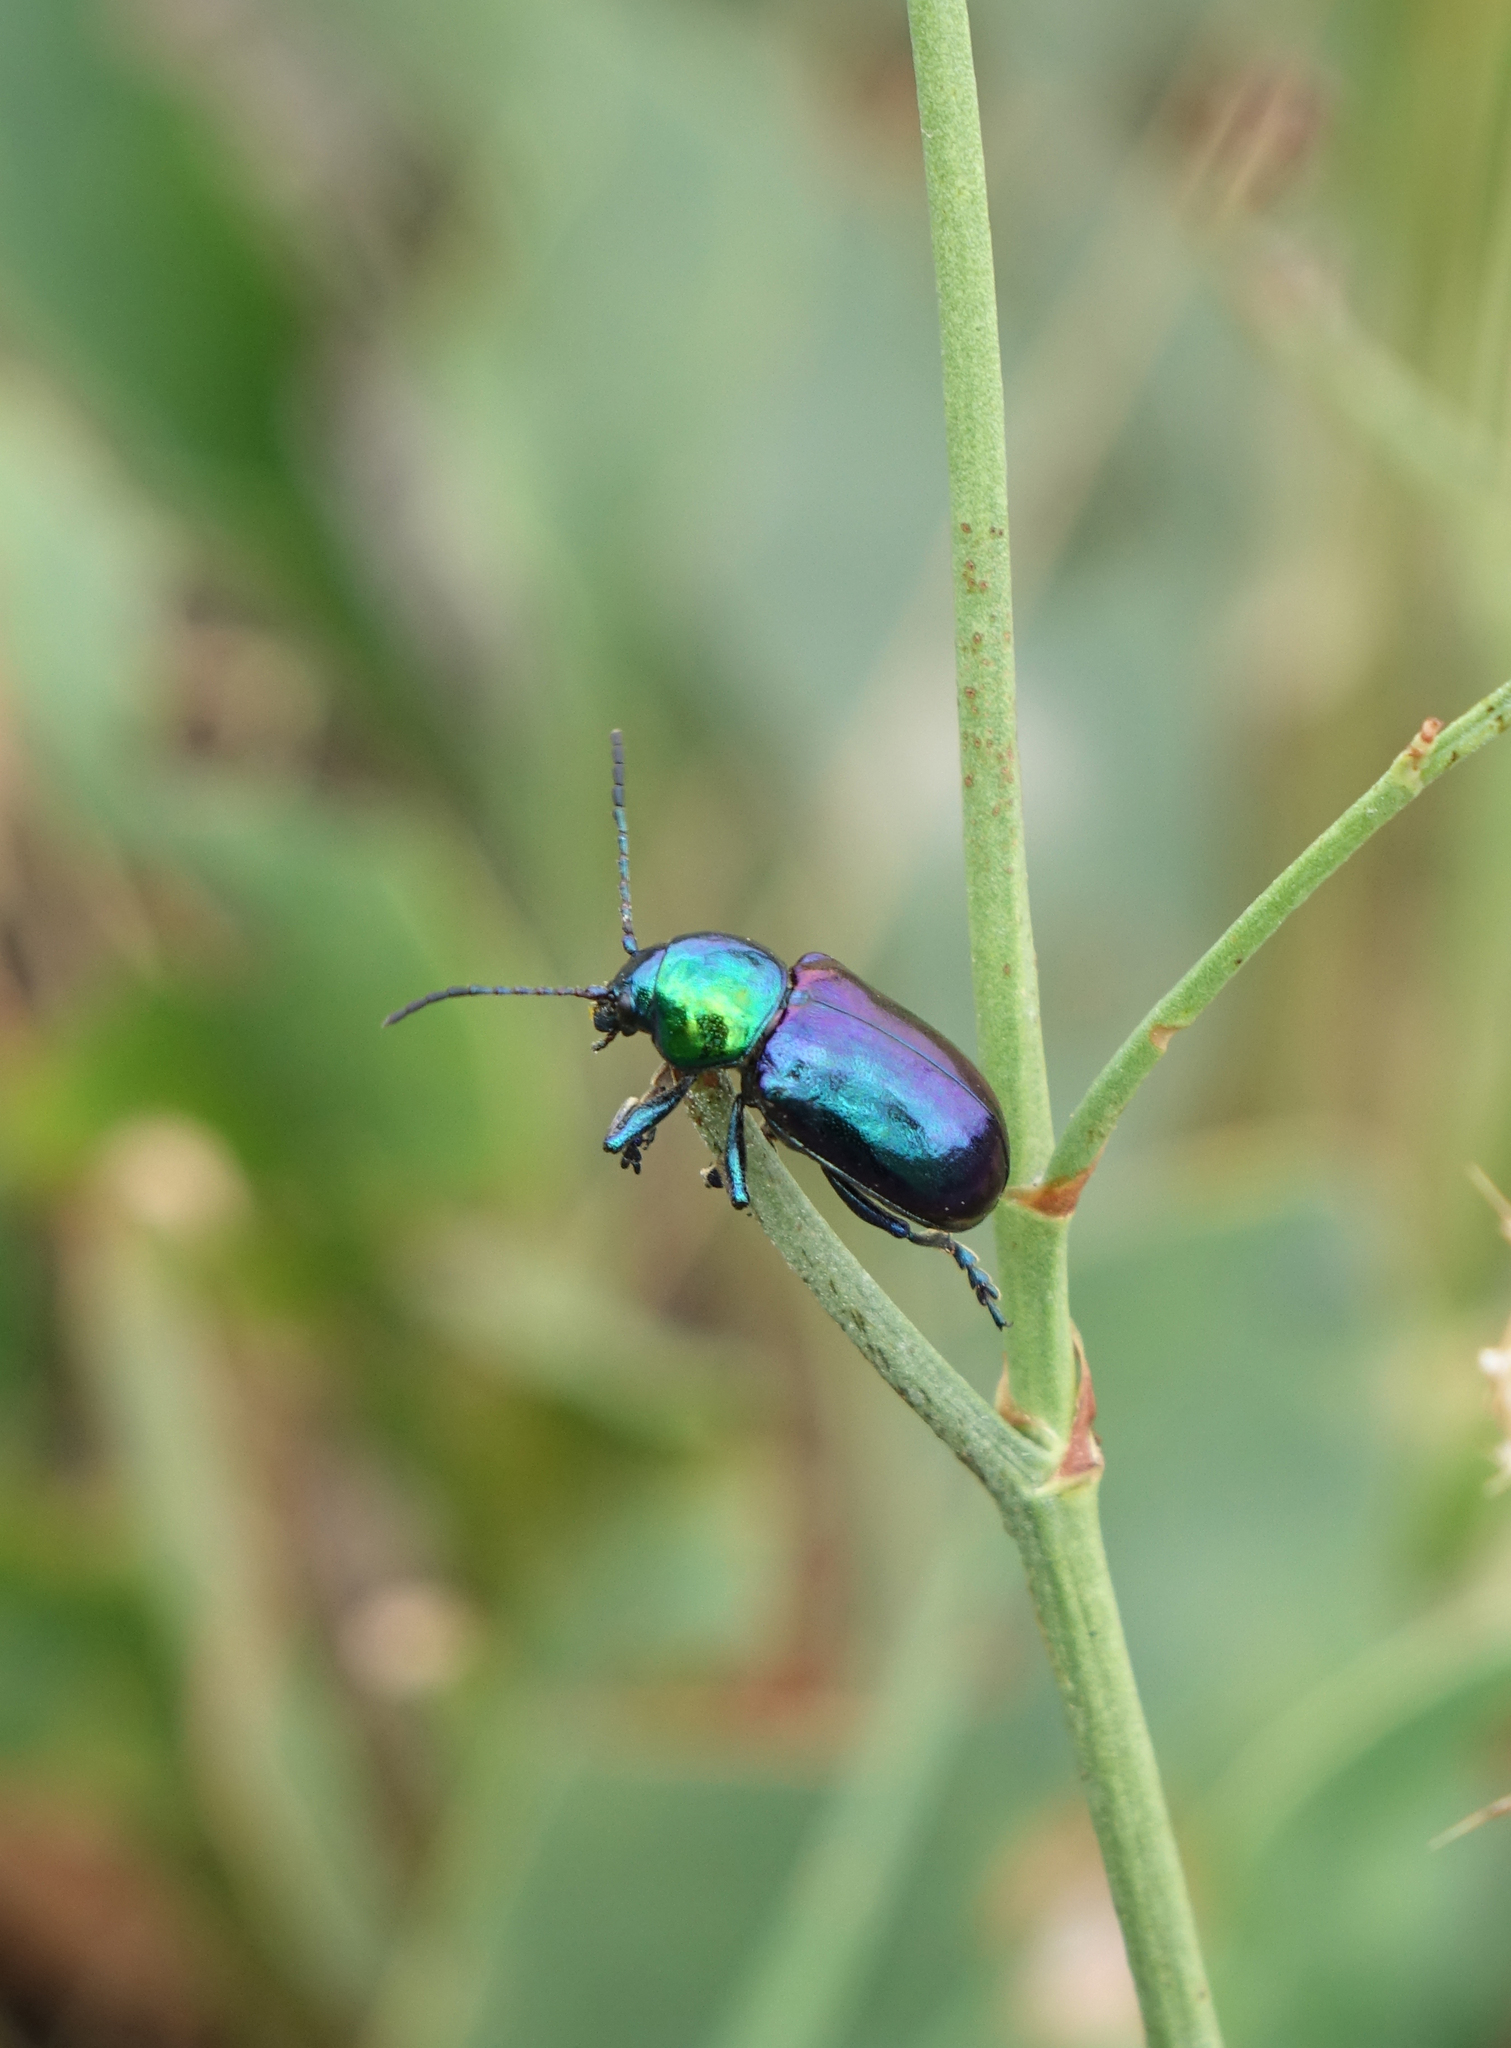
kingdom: Animalia
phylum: Arthropoda
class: Insecta
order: Coleoptera
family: Chrysomelidae
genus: Chrysochares
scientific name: Chrysochares
